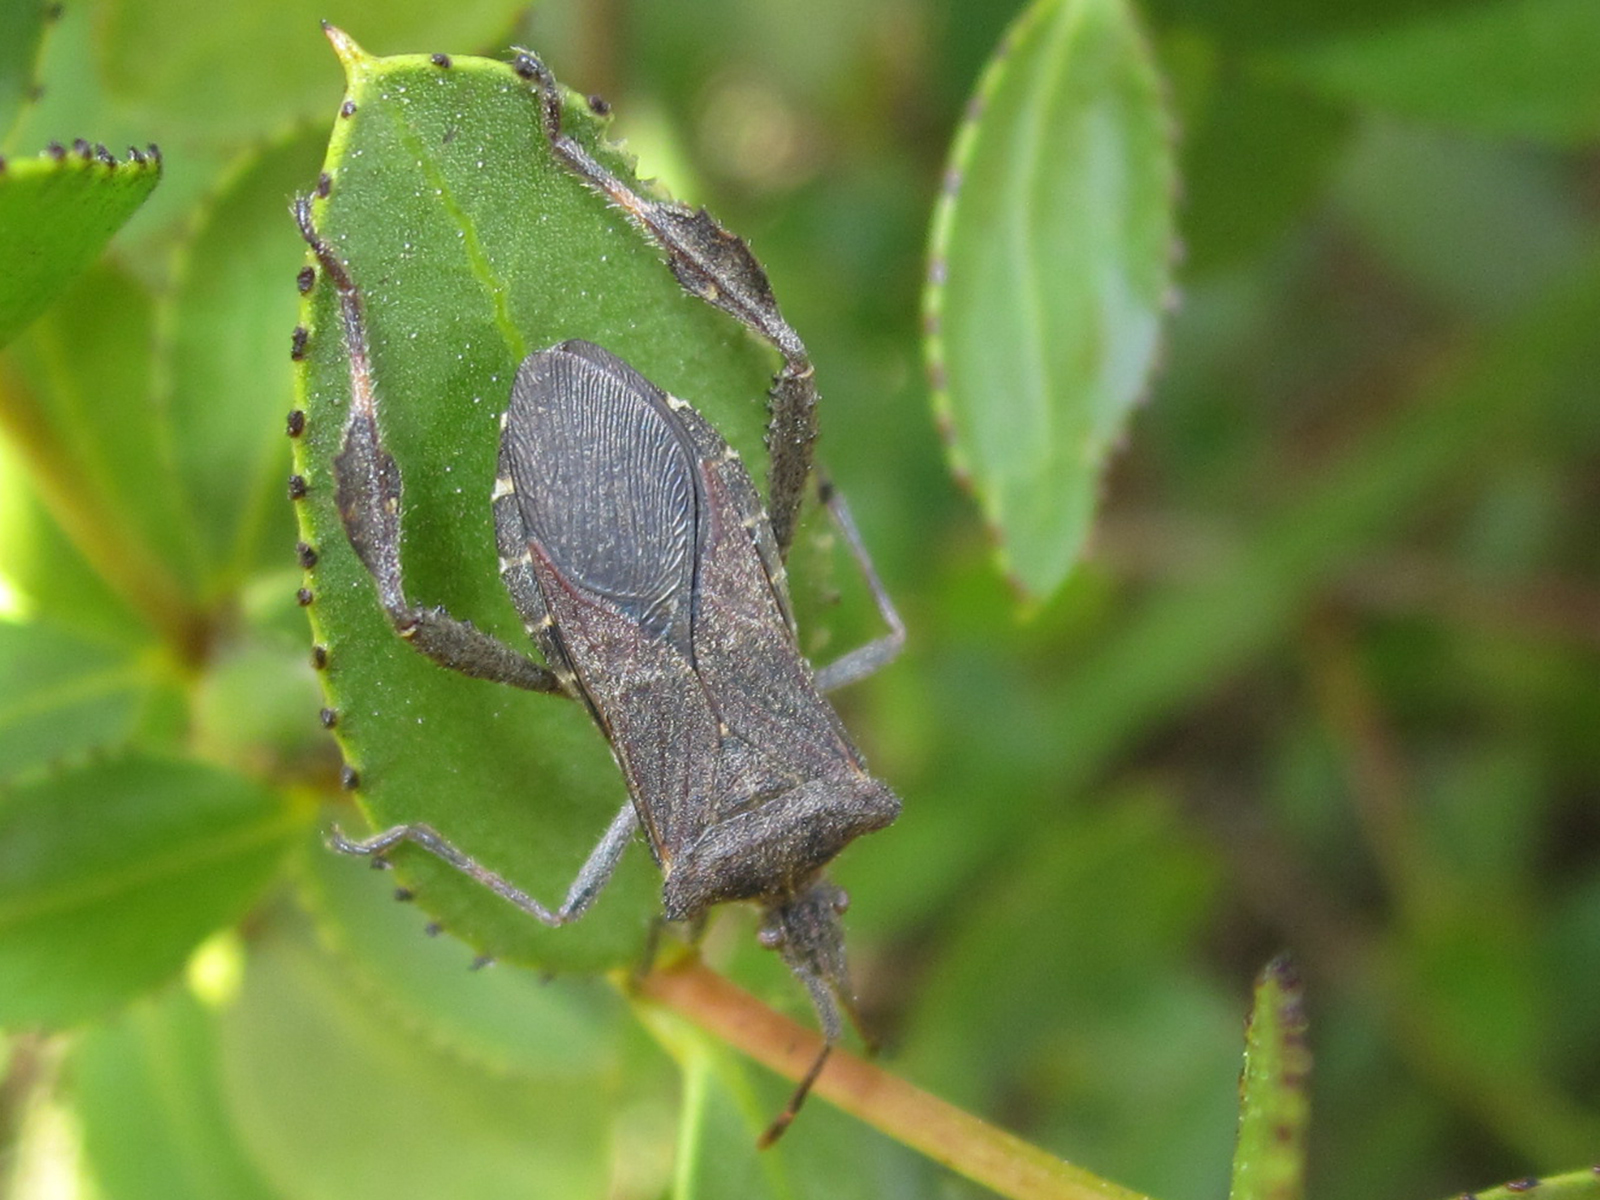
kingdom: Animalia
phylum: Arthropoda
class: Insecta
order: Hemiptera
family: Coreidae
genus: Leptoglossus
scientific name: Leptoglossus chilensis
